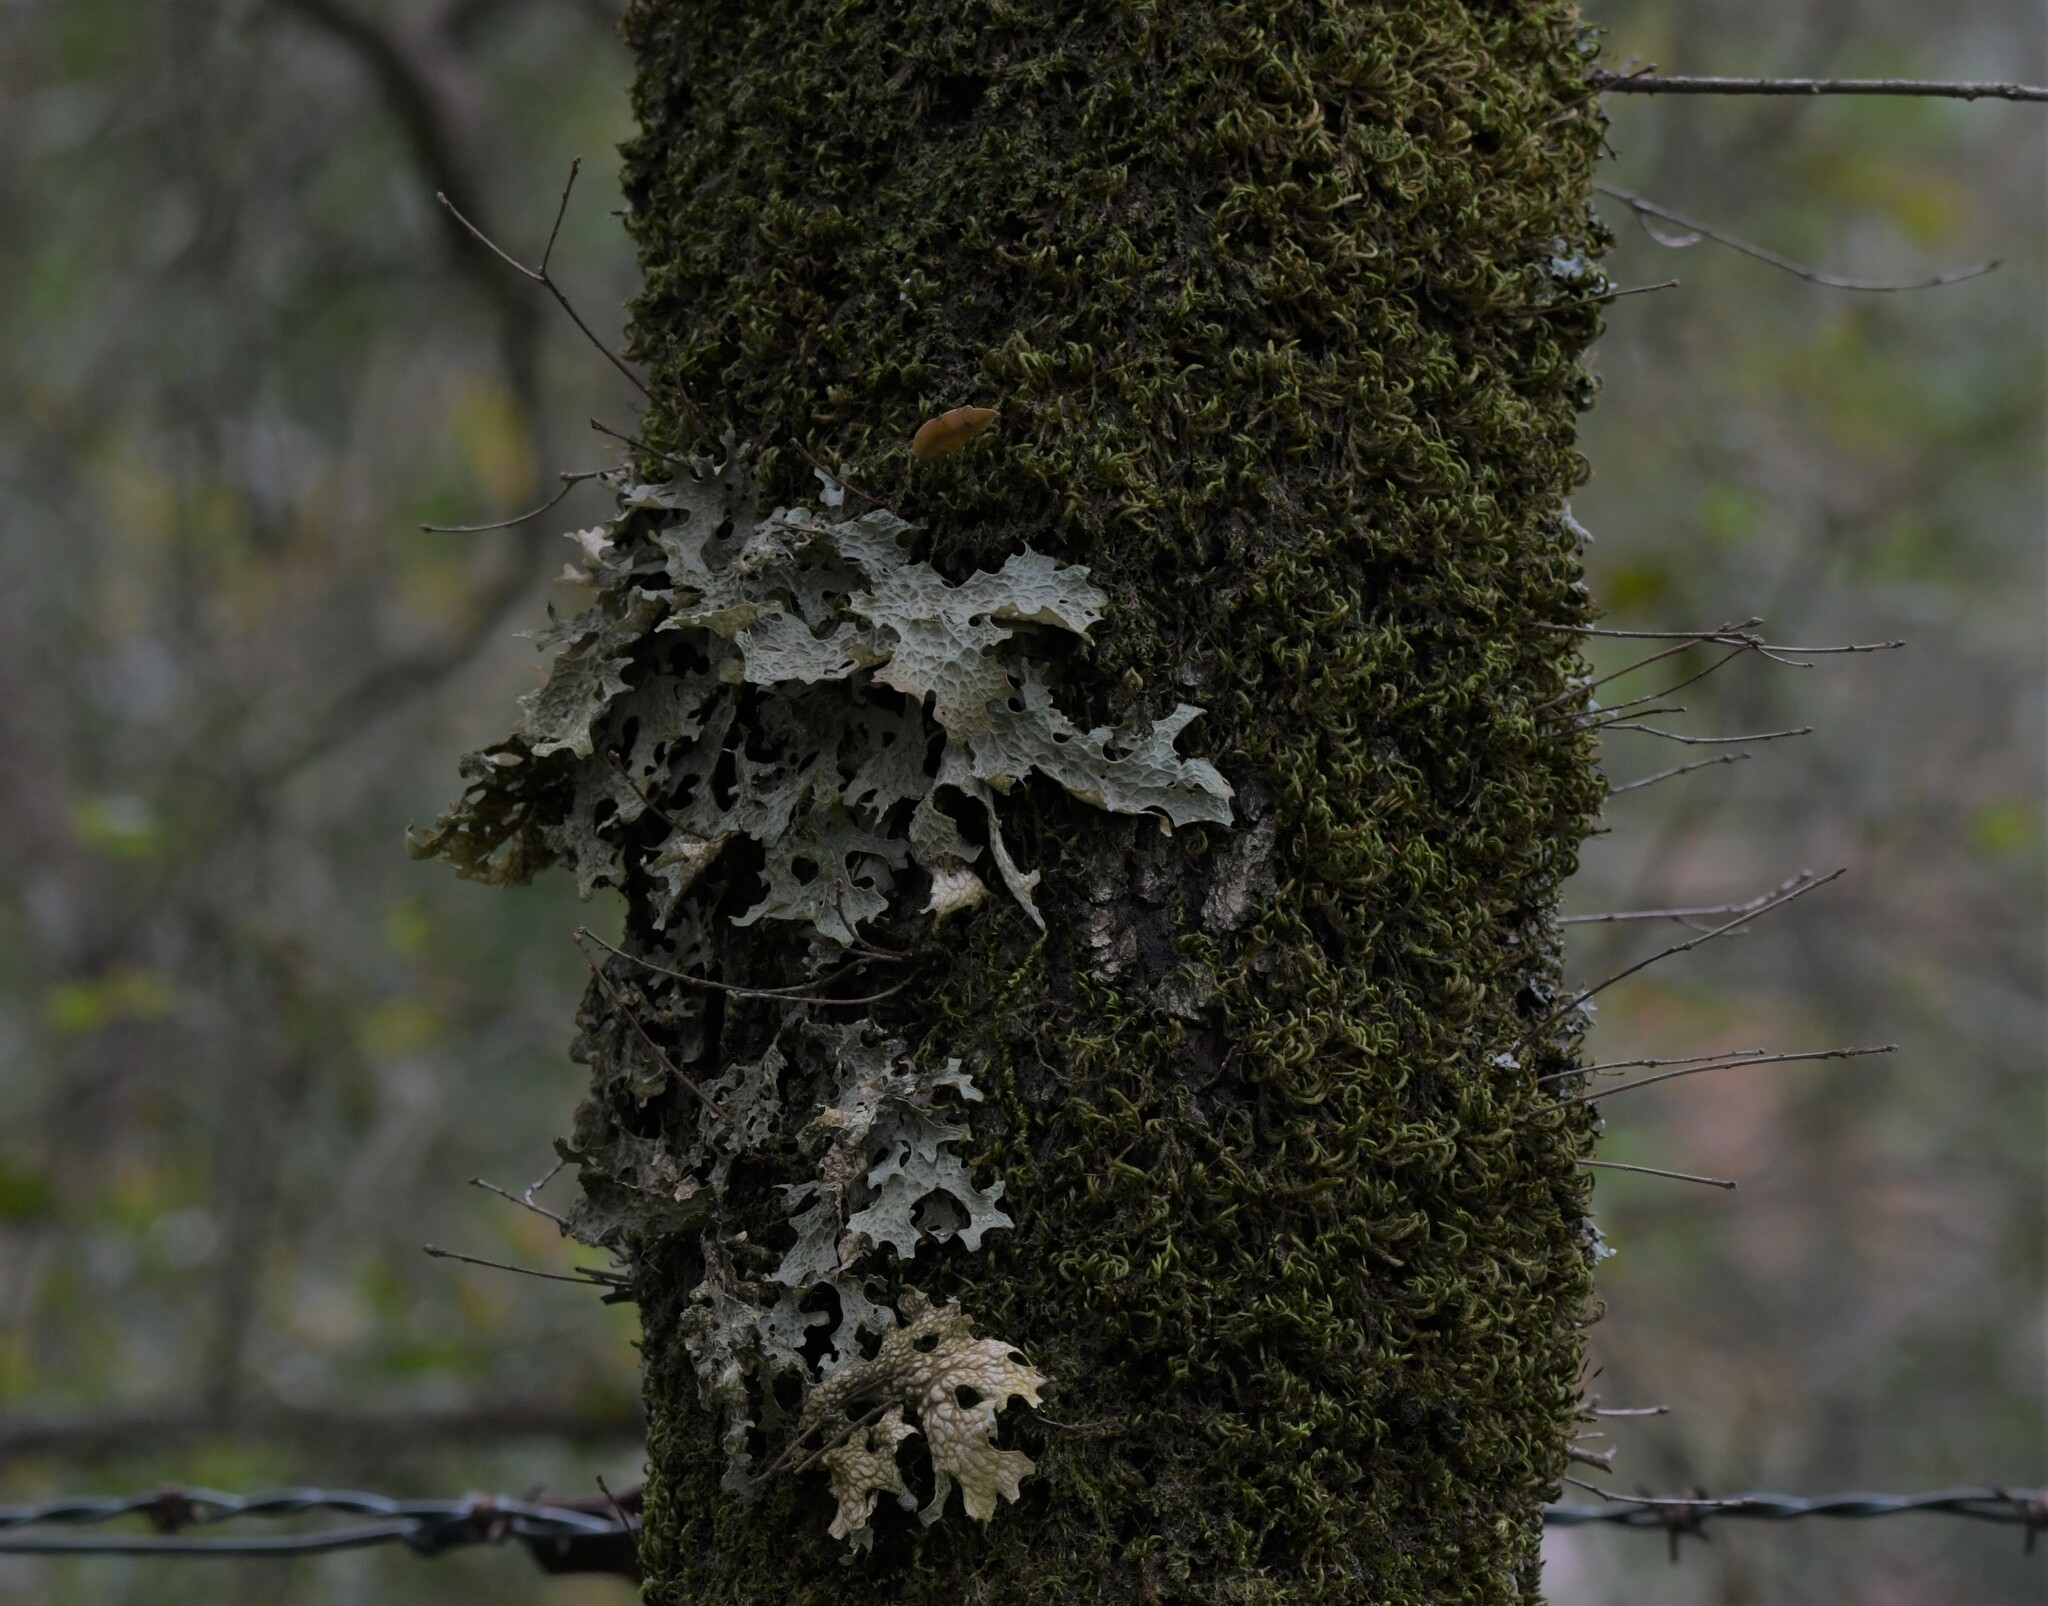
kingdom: Fungi
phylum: Ascomycota
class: Lecanoromycetes
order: Peltigerales
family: Lobariaceae
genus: Lobaria
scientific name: Lobaria pulmonaria
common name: Lungwort
